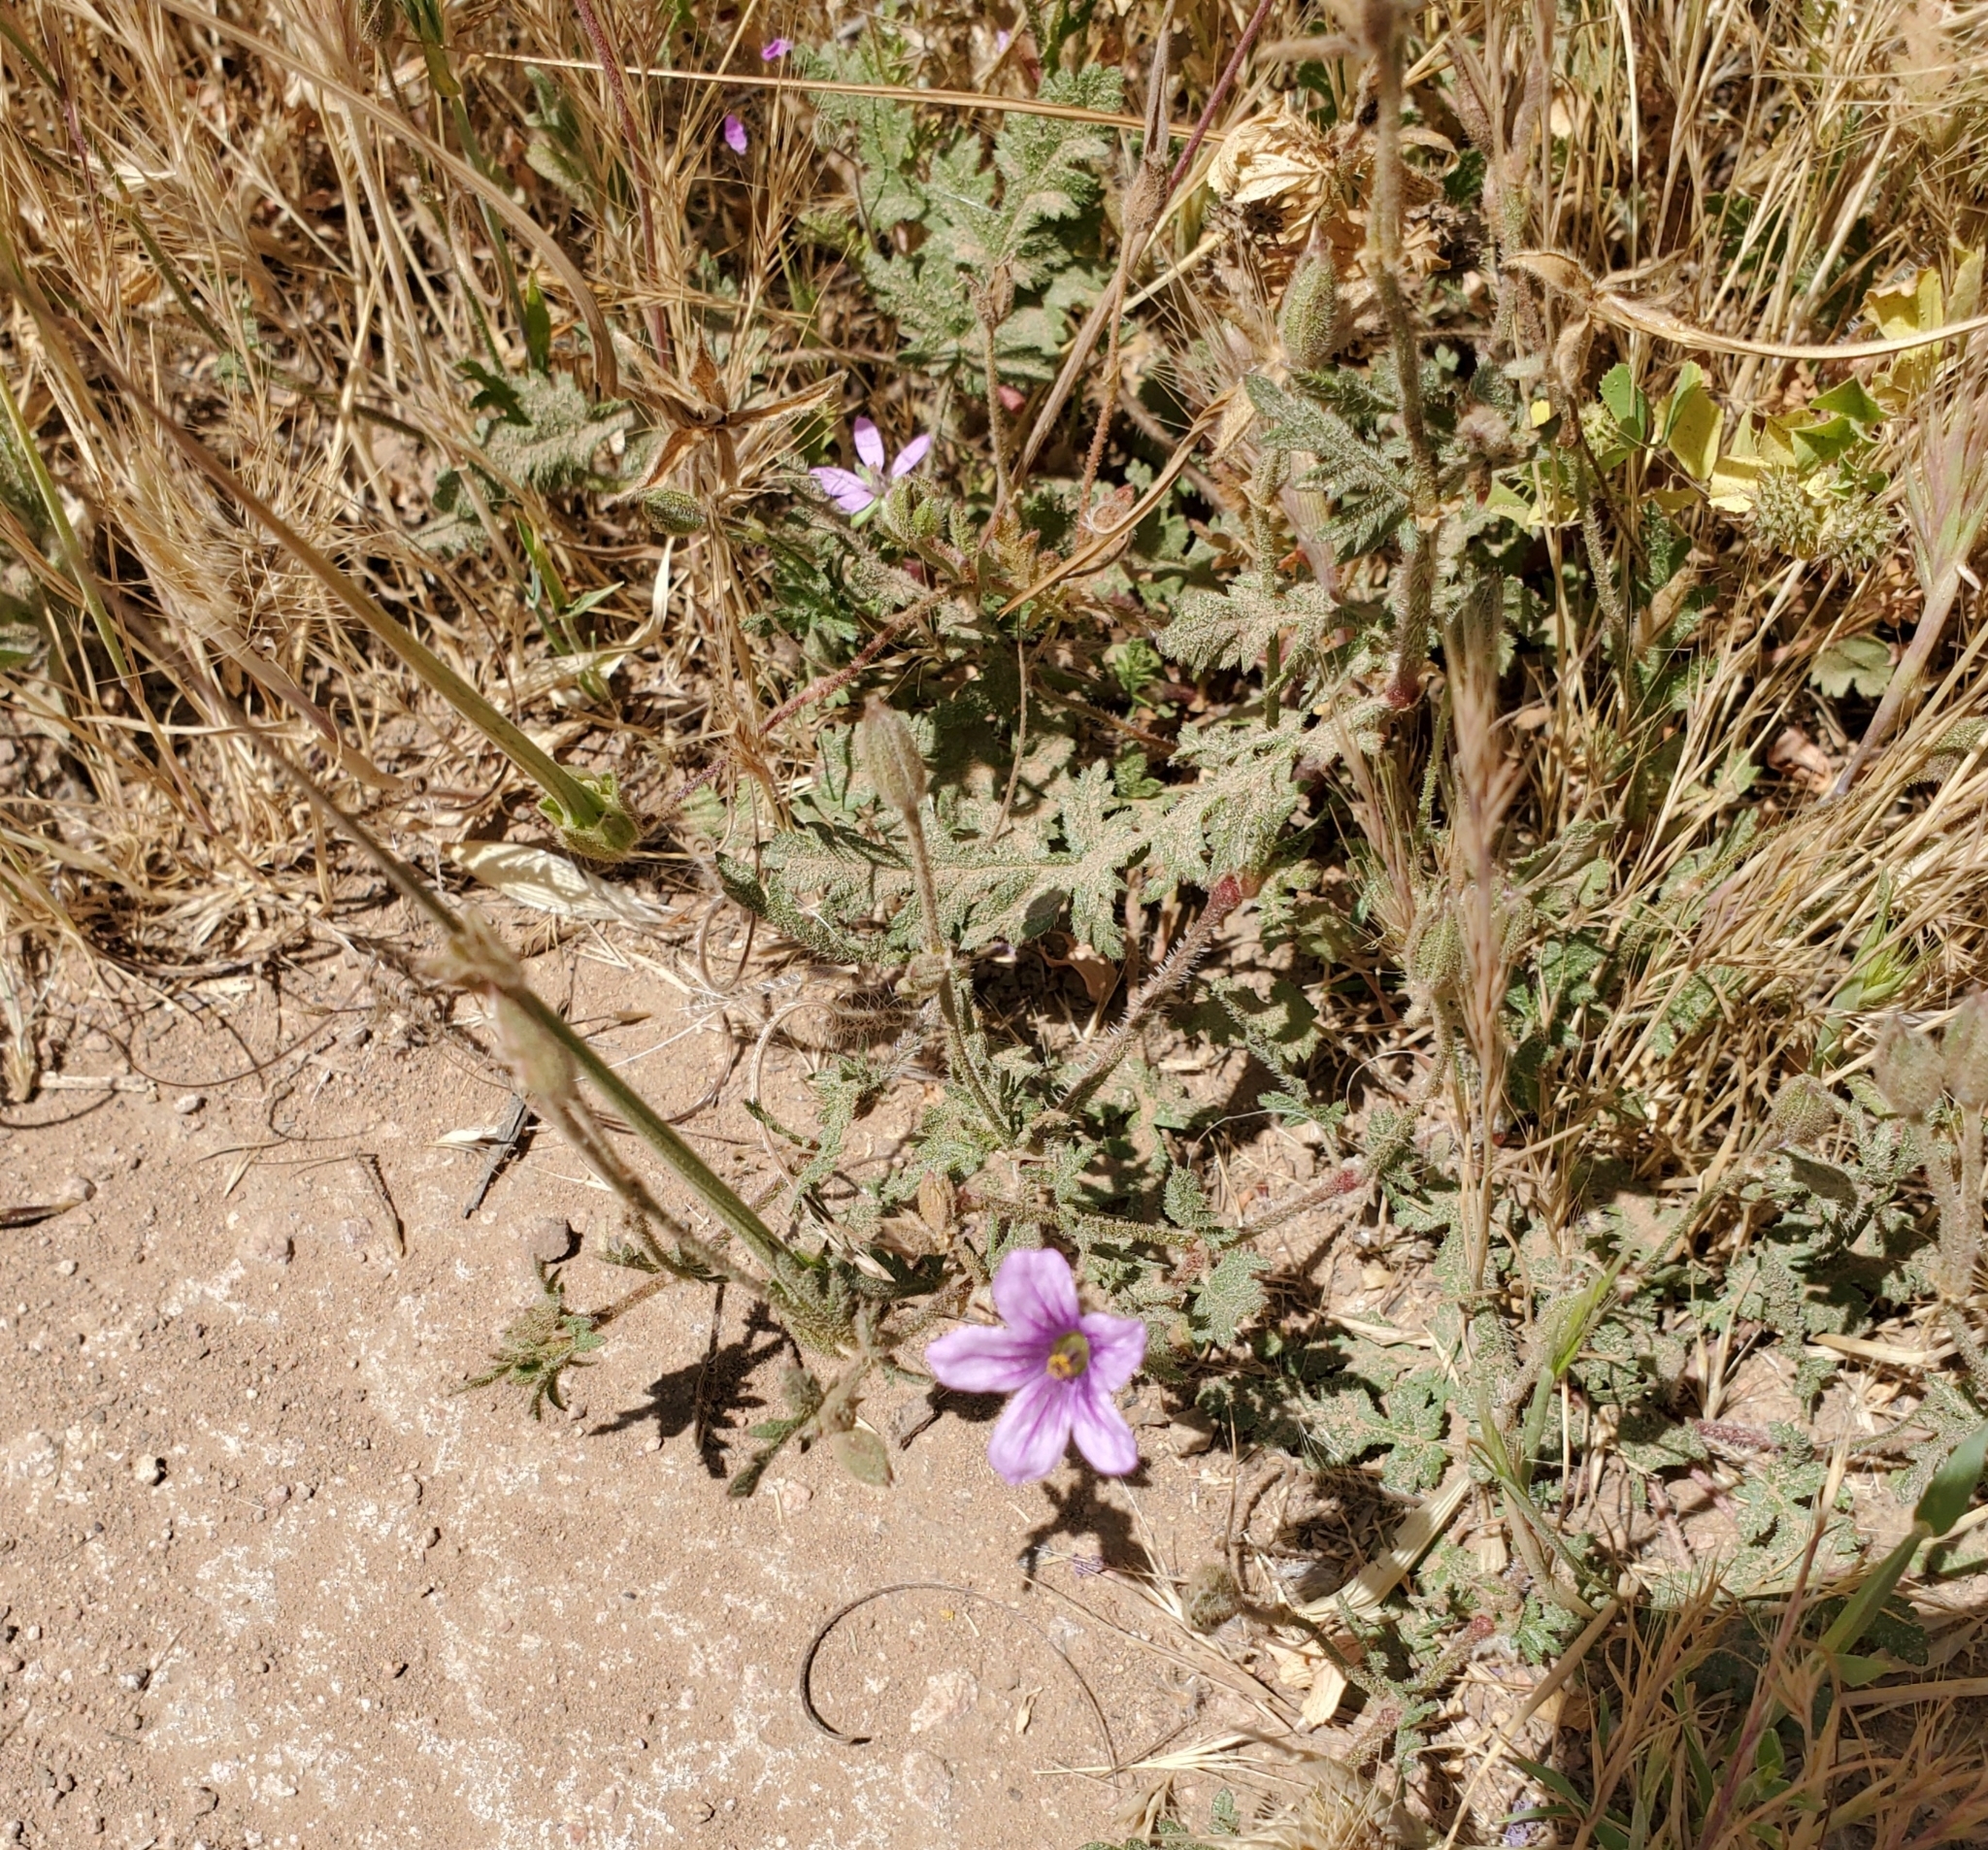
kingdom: Plantae
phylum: Tracheophyta
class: Magnoliopsida
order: Geraniales
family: Geraniaceae
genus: Erodium
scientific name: Erodium botrys
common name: Mediterranean stork's-bill
